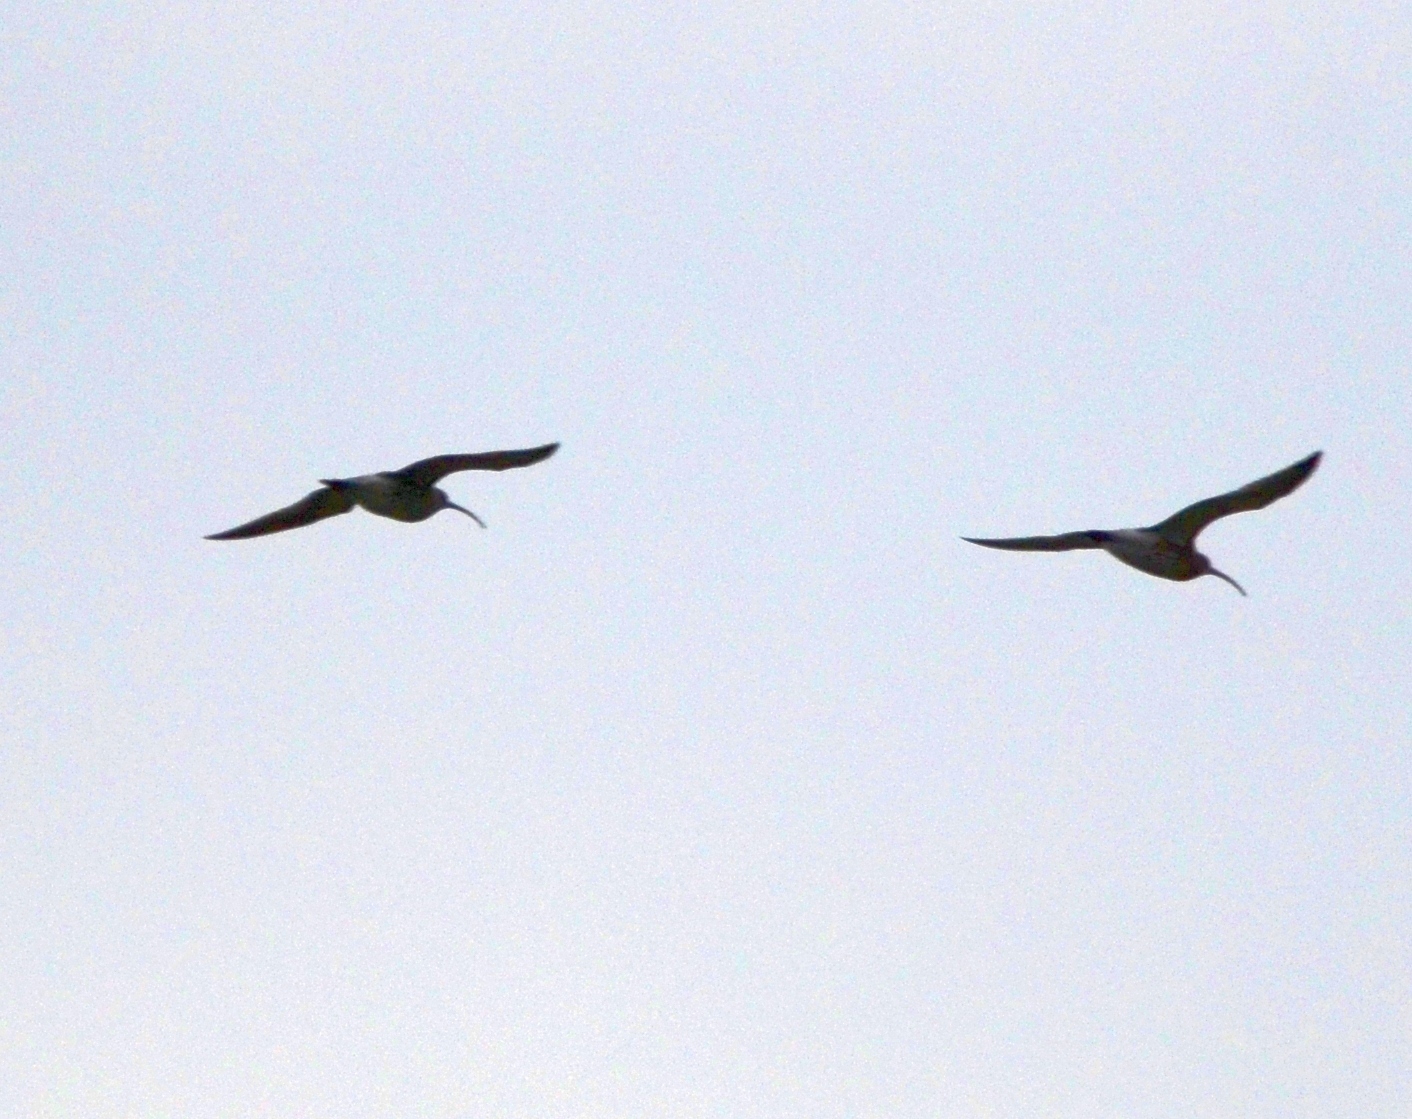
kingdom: Animalia
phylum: Chordata
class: Aves
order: Charadriiformes
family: Scolopacidae
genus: Numenius
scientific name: Numenius arquata
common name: Eurasian curlew
